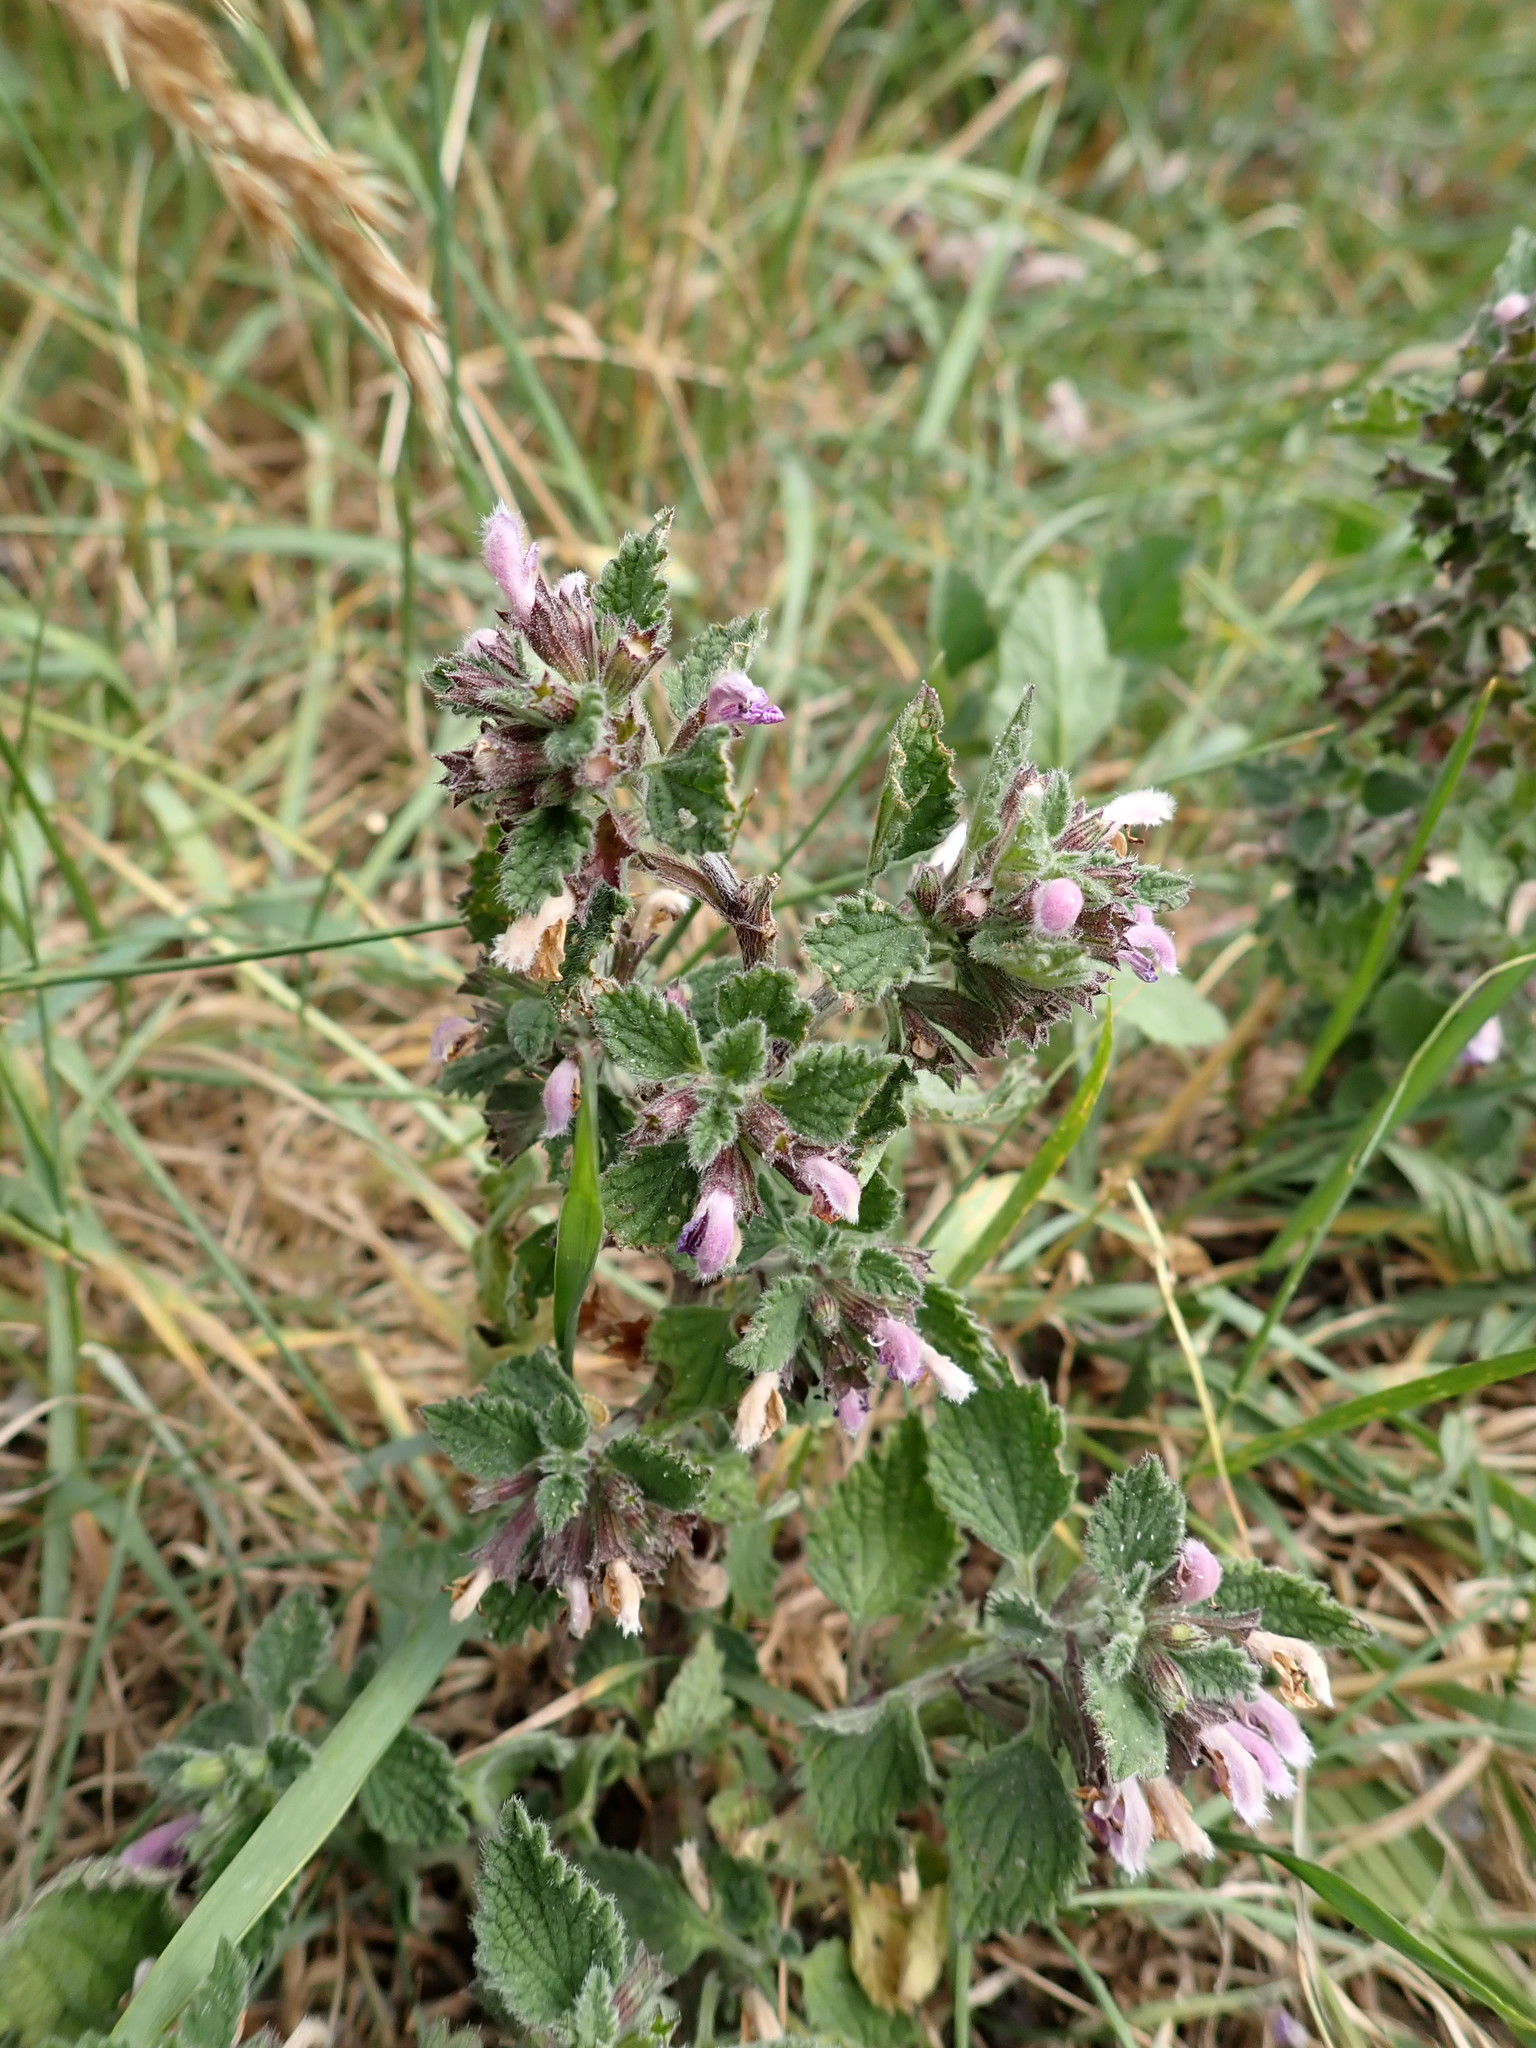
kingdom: Plantae
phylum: Tracheophyta
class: Magnoliopsida
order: Lamiales
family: Lamiaceae
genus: Ballota
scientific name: Ballota nigra
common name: Black horehound
